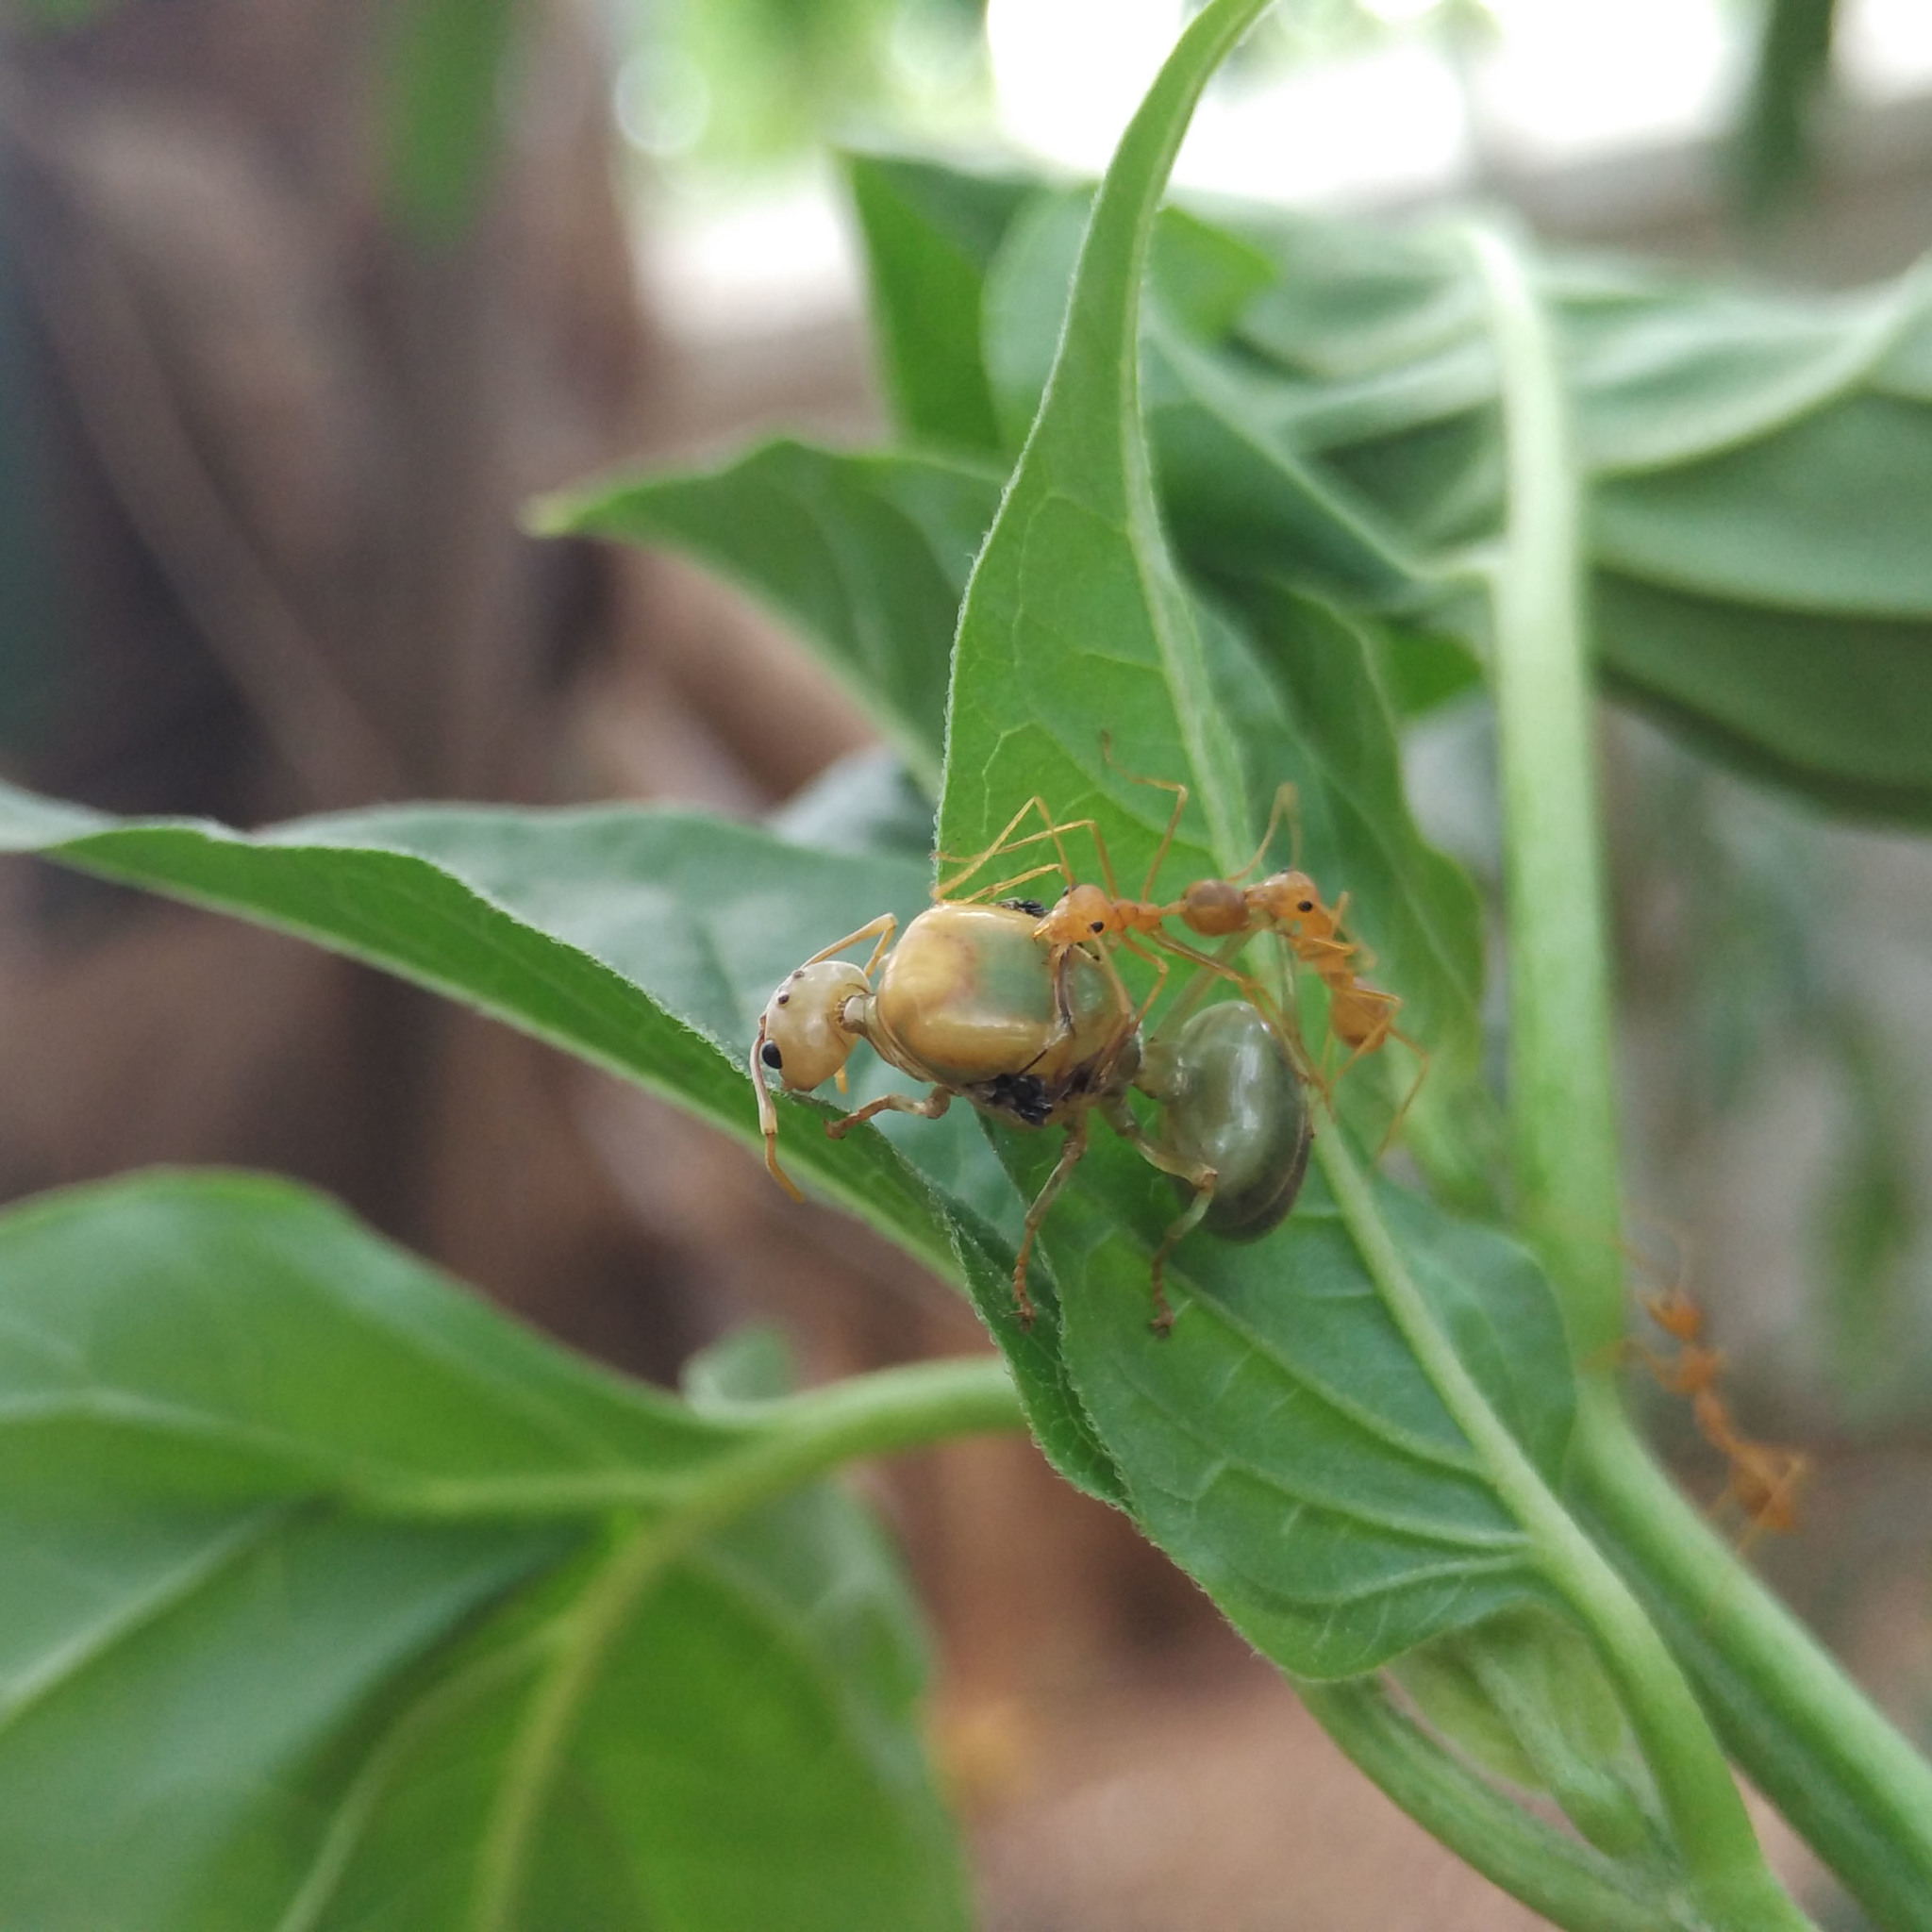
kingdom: Animalia
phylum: Arthropoda
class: Insecta
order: Hymenoptera
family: Formicidae
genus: Oecophylla
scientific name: Oecophylla smaragdina
